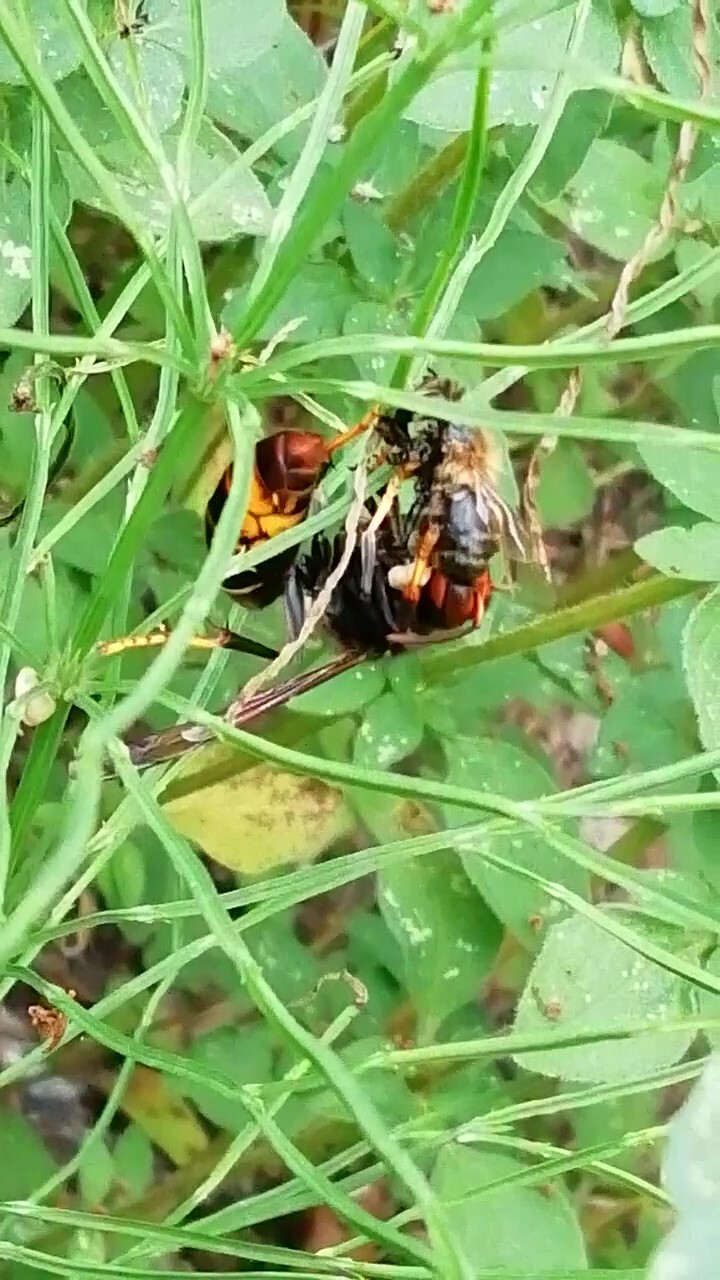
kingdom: Animalia
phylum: Arthropoda
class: Insecta
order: Hymenoptera
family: Vespidae
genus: Vespa
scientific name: Vespa velutina
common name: Asian hornet
